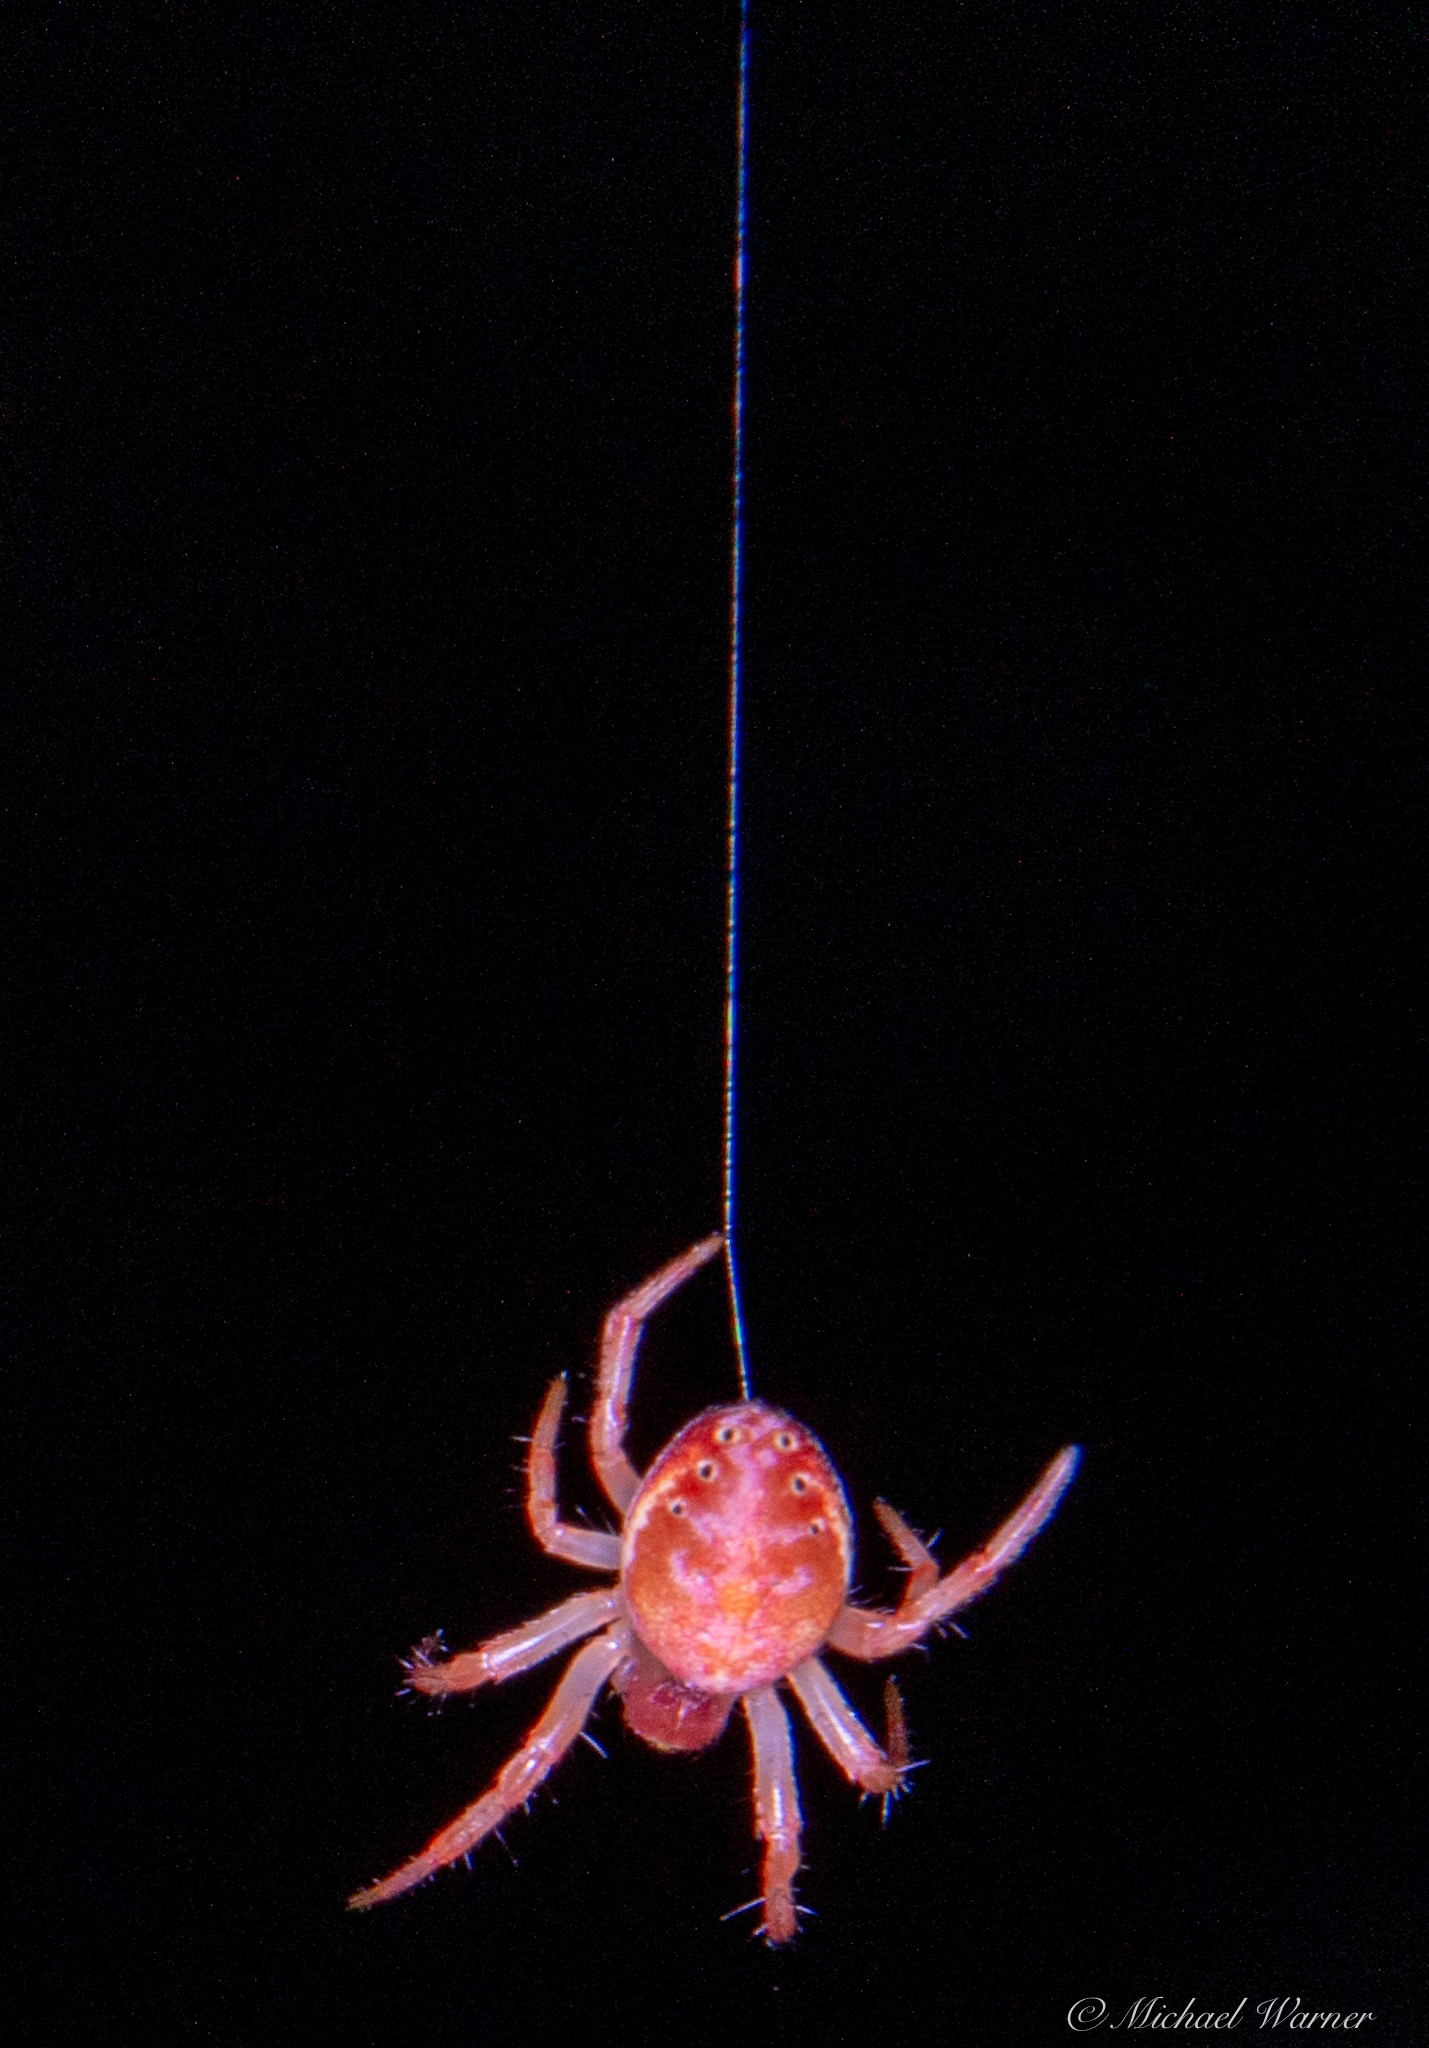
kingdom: Animalia
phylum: Arthropoda
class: Arachnida
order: Araneae
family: Araneidae
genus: Araniella
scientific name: Araniella displicata
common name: Sixspotted orb weaver
